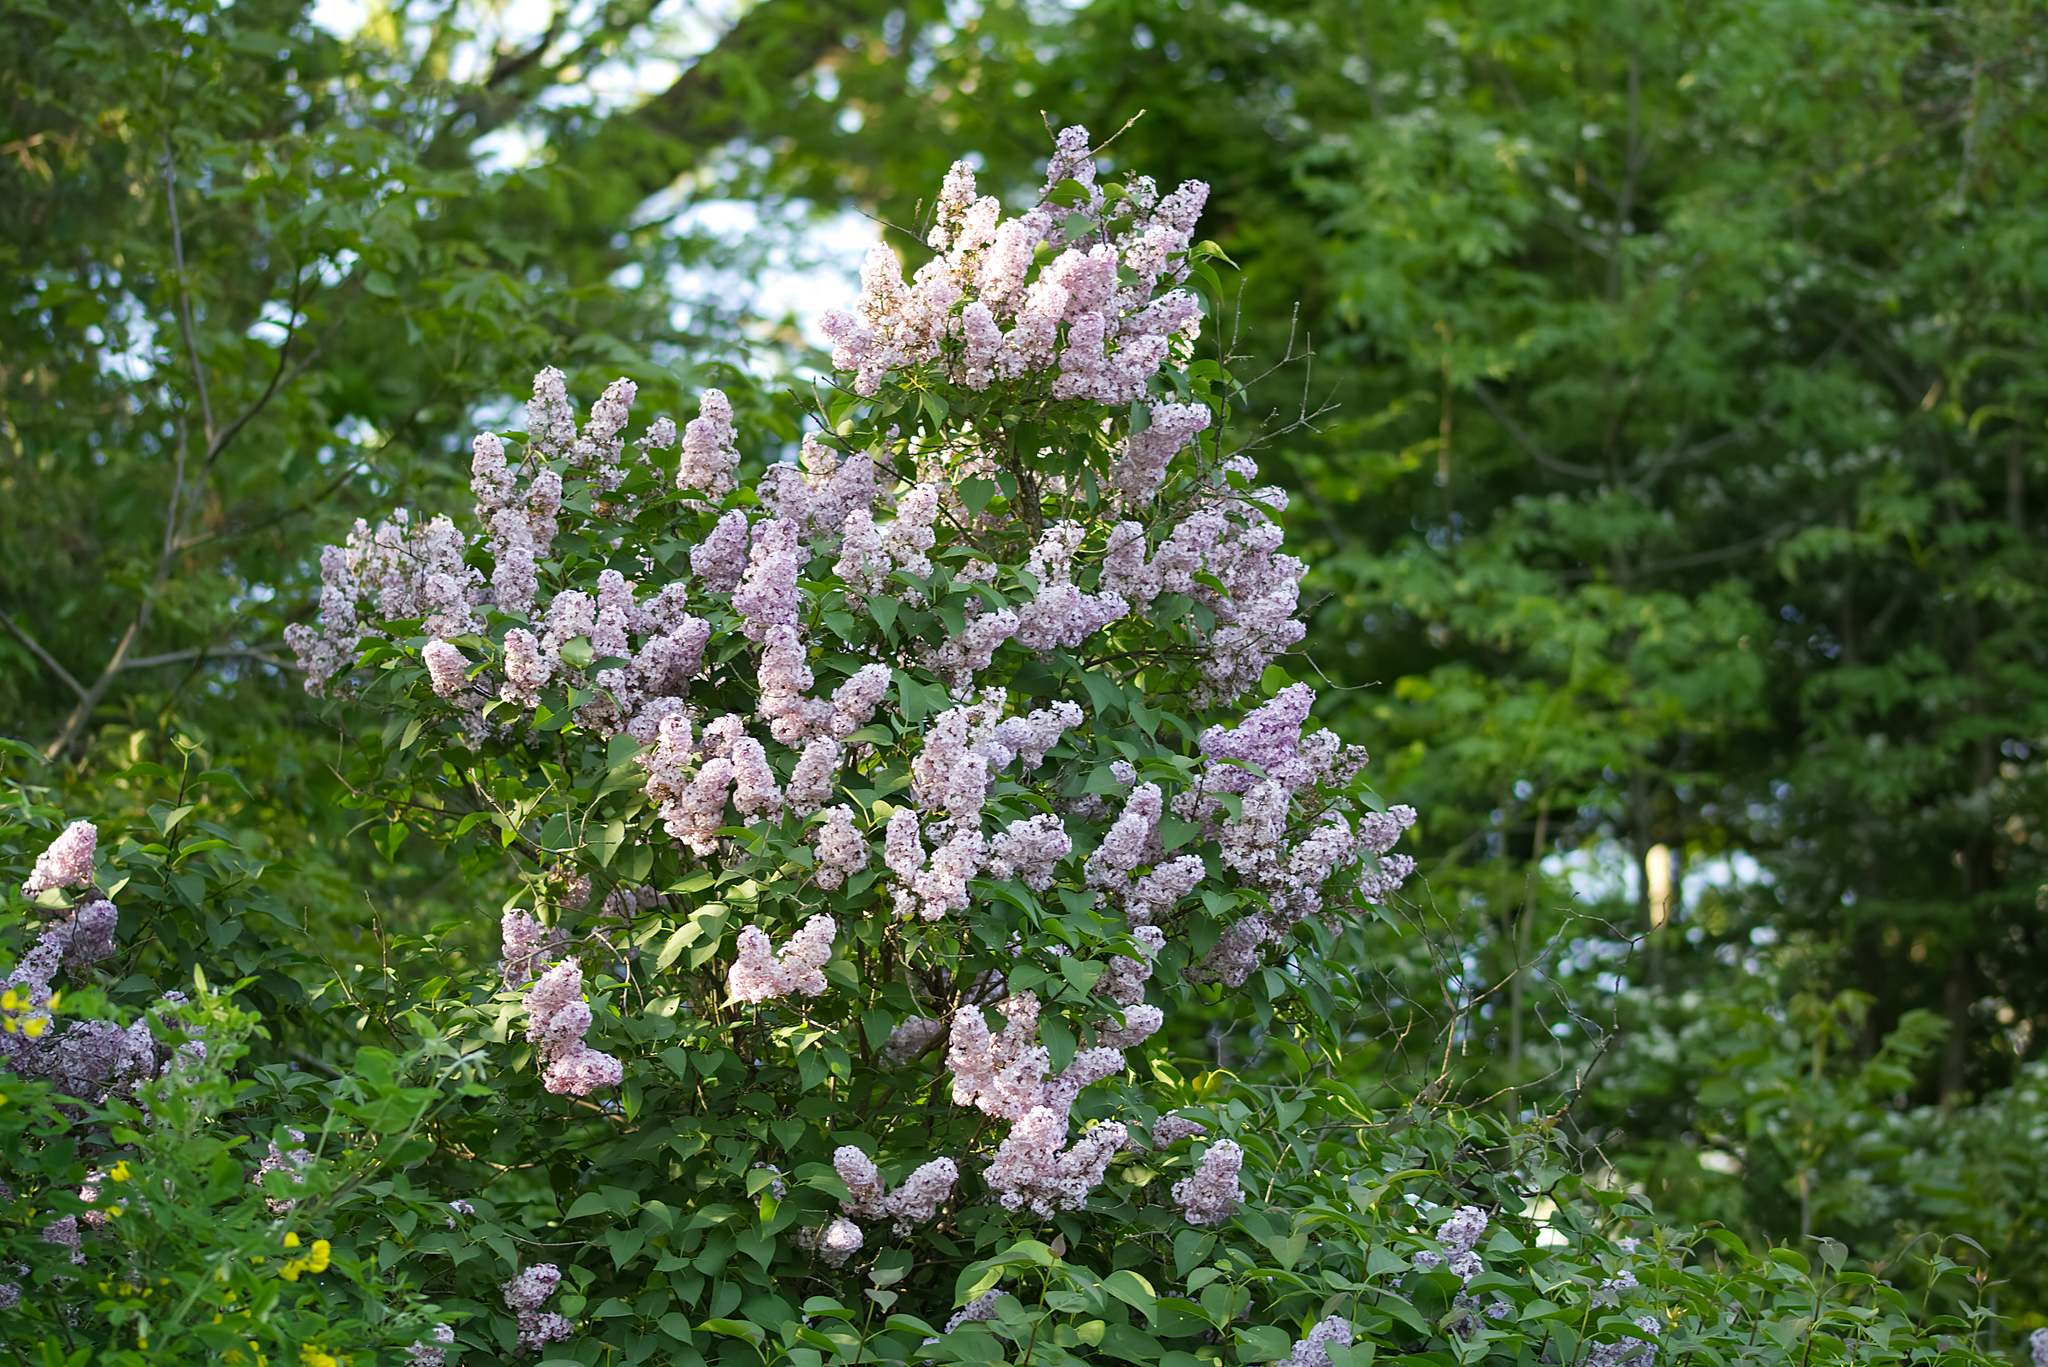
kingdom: Plantae
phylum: Tracheophyta
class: Magnoliopsida
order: Lamiales
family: Oleaceae
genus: Syringa
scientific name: Syringa vulgaris
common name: Common lilac
